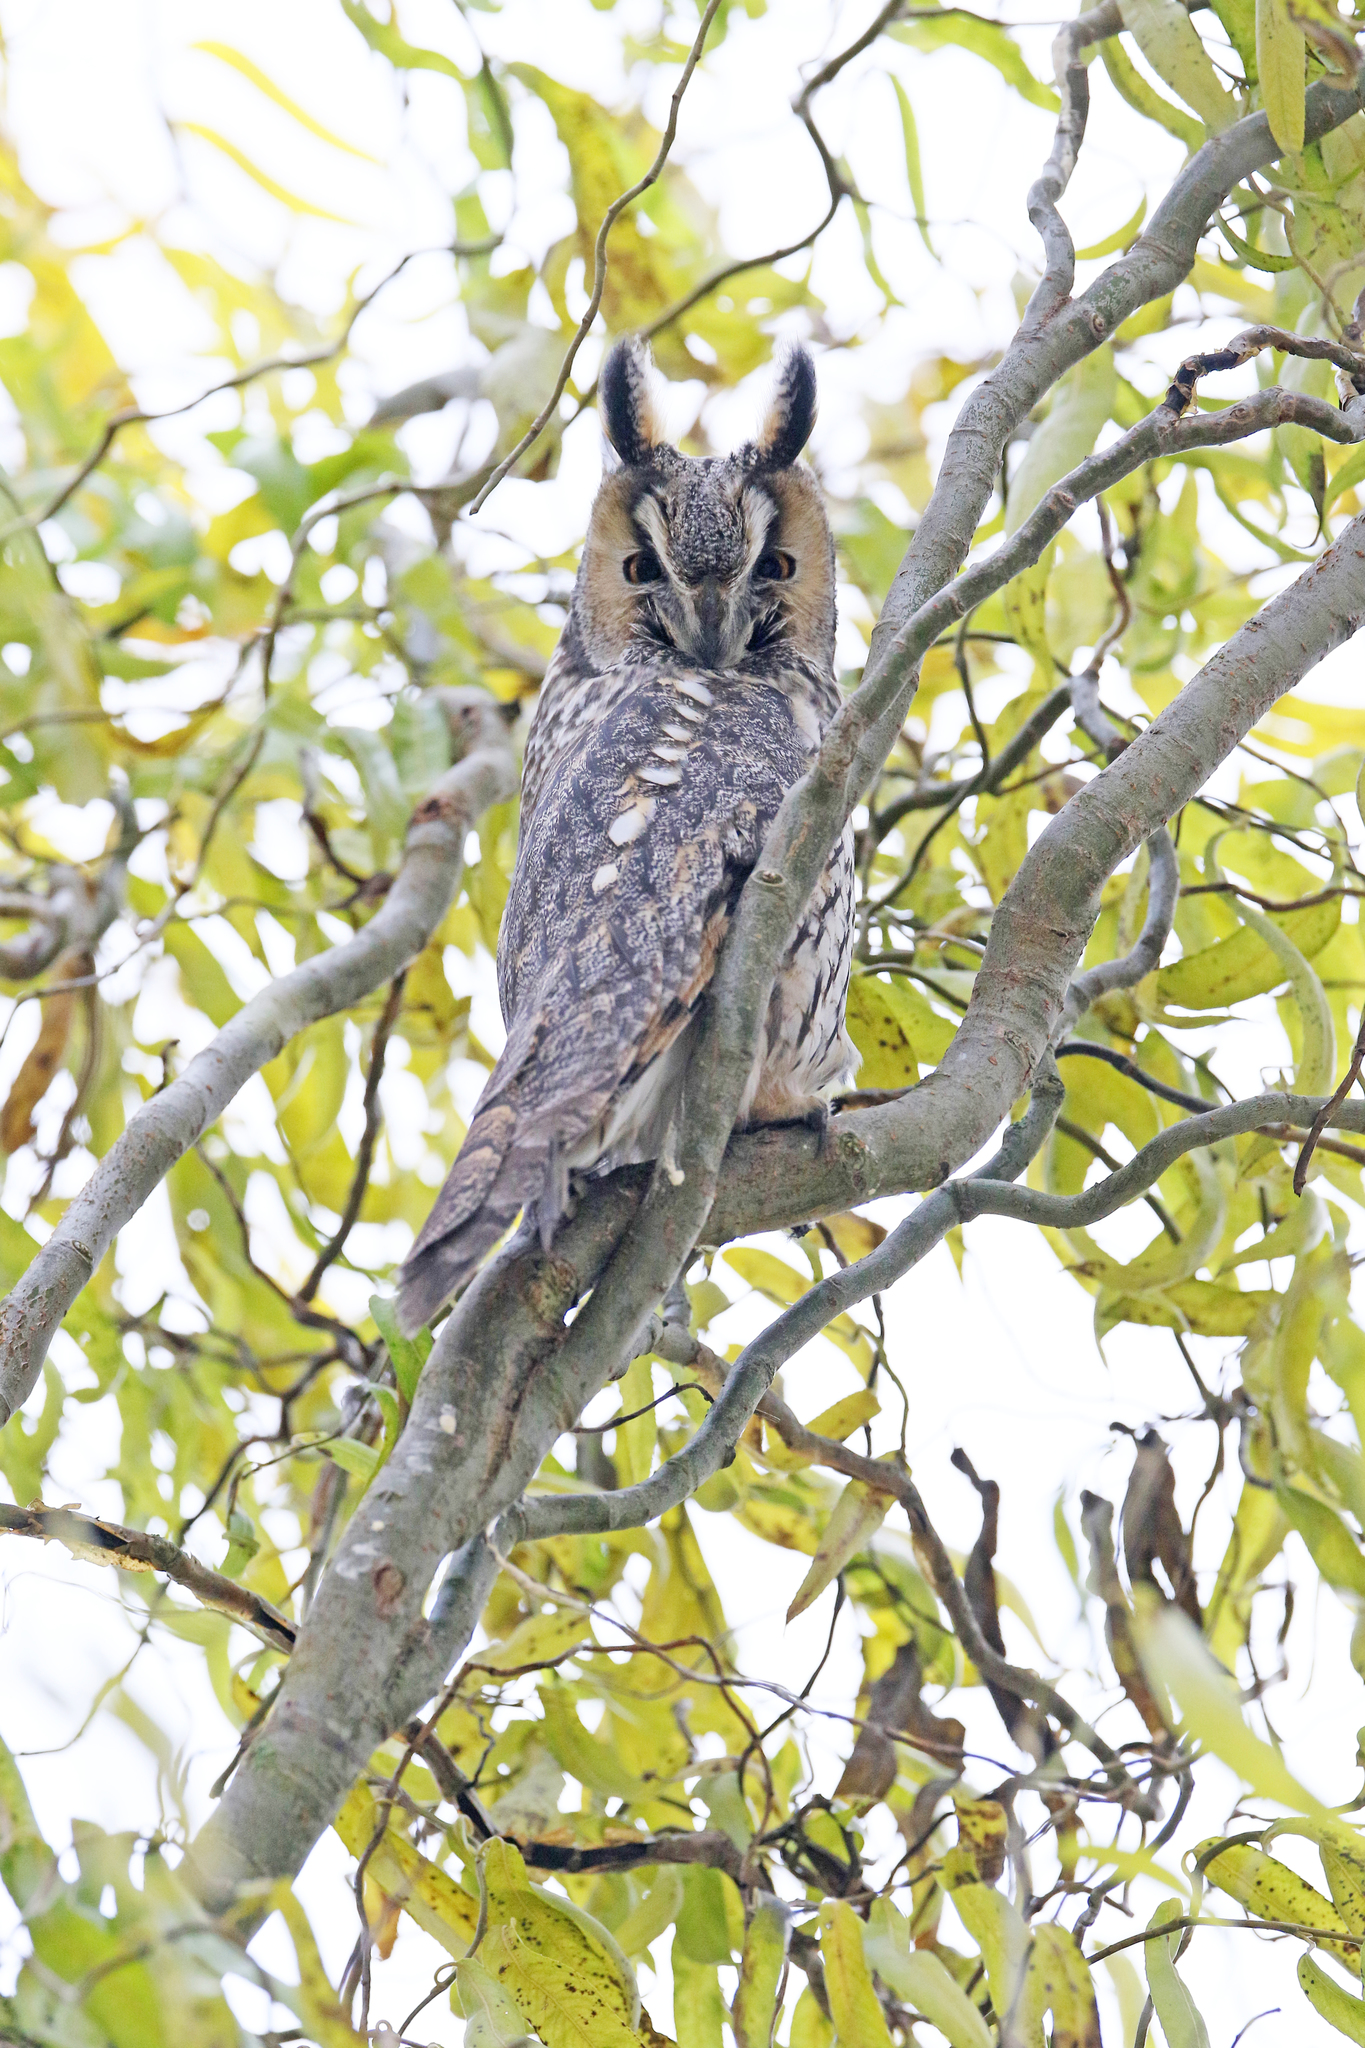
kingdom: Animalia
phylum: Chordata
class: Aves
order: Strigiformes
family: Strigidae
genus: Asio
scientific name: Asio otus
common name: Long-eared owl
